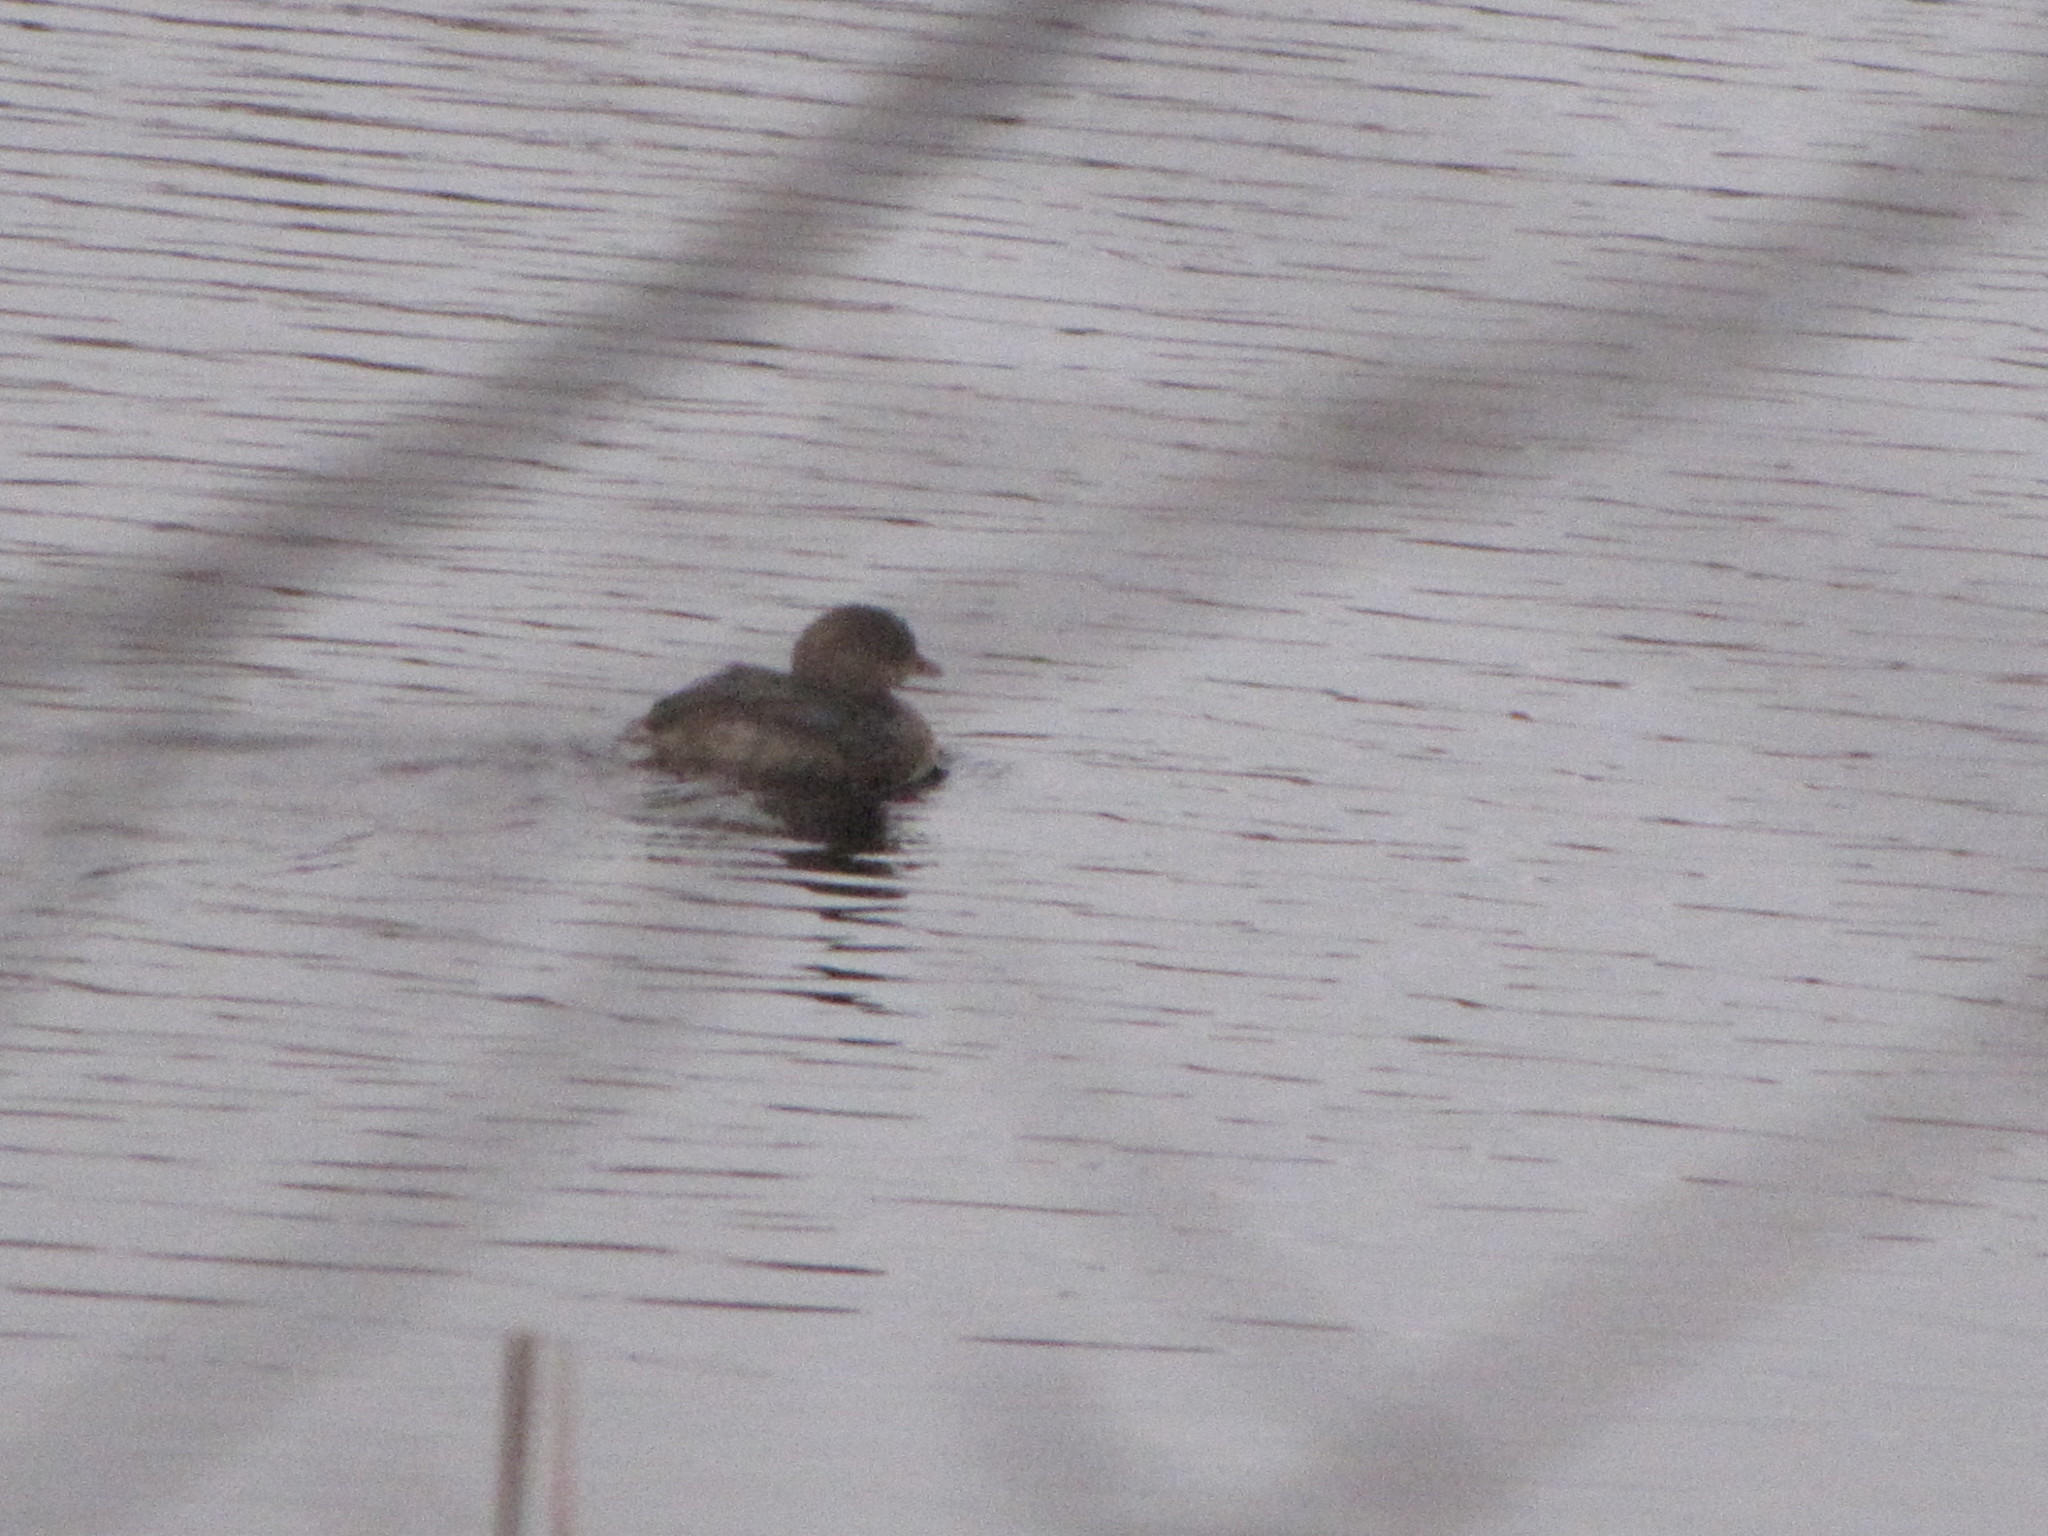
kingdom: Animalia
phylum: Chordata
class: Aves
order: Podicipediformes
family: Podicipedidae
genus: Podilymbus
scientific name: Podilymbus podiceps
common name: Pied-billed grebe
